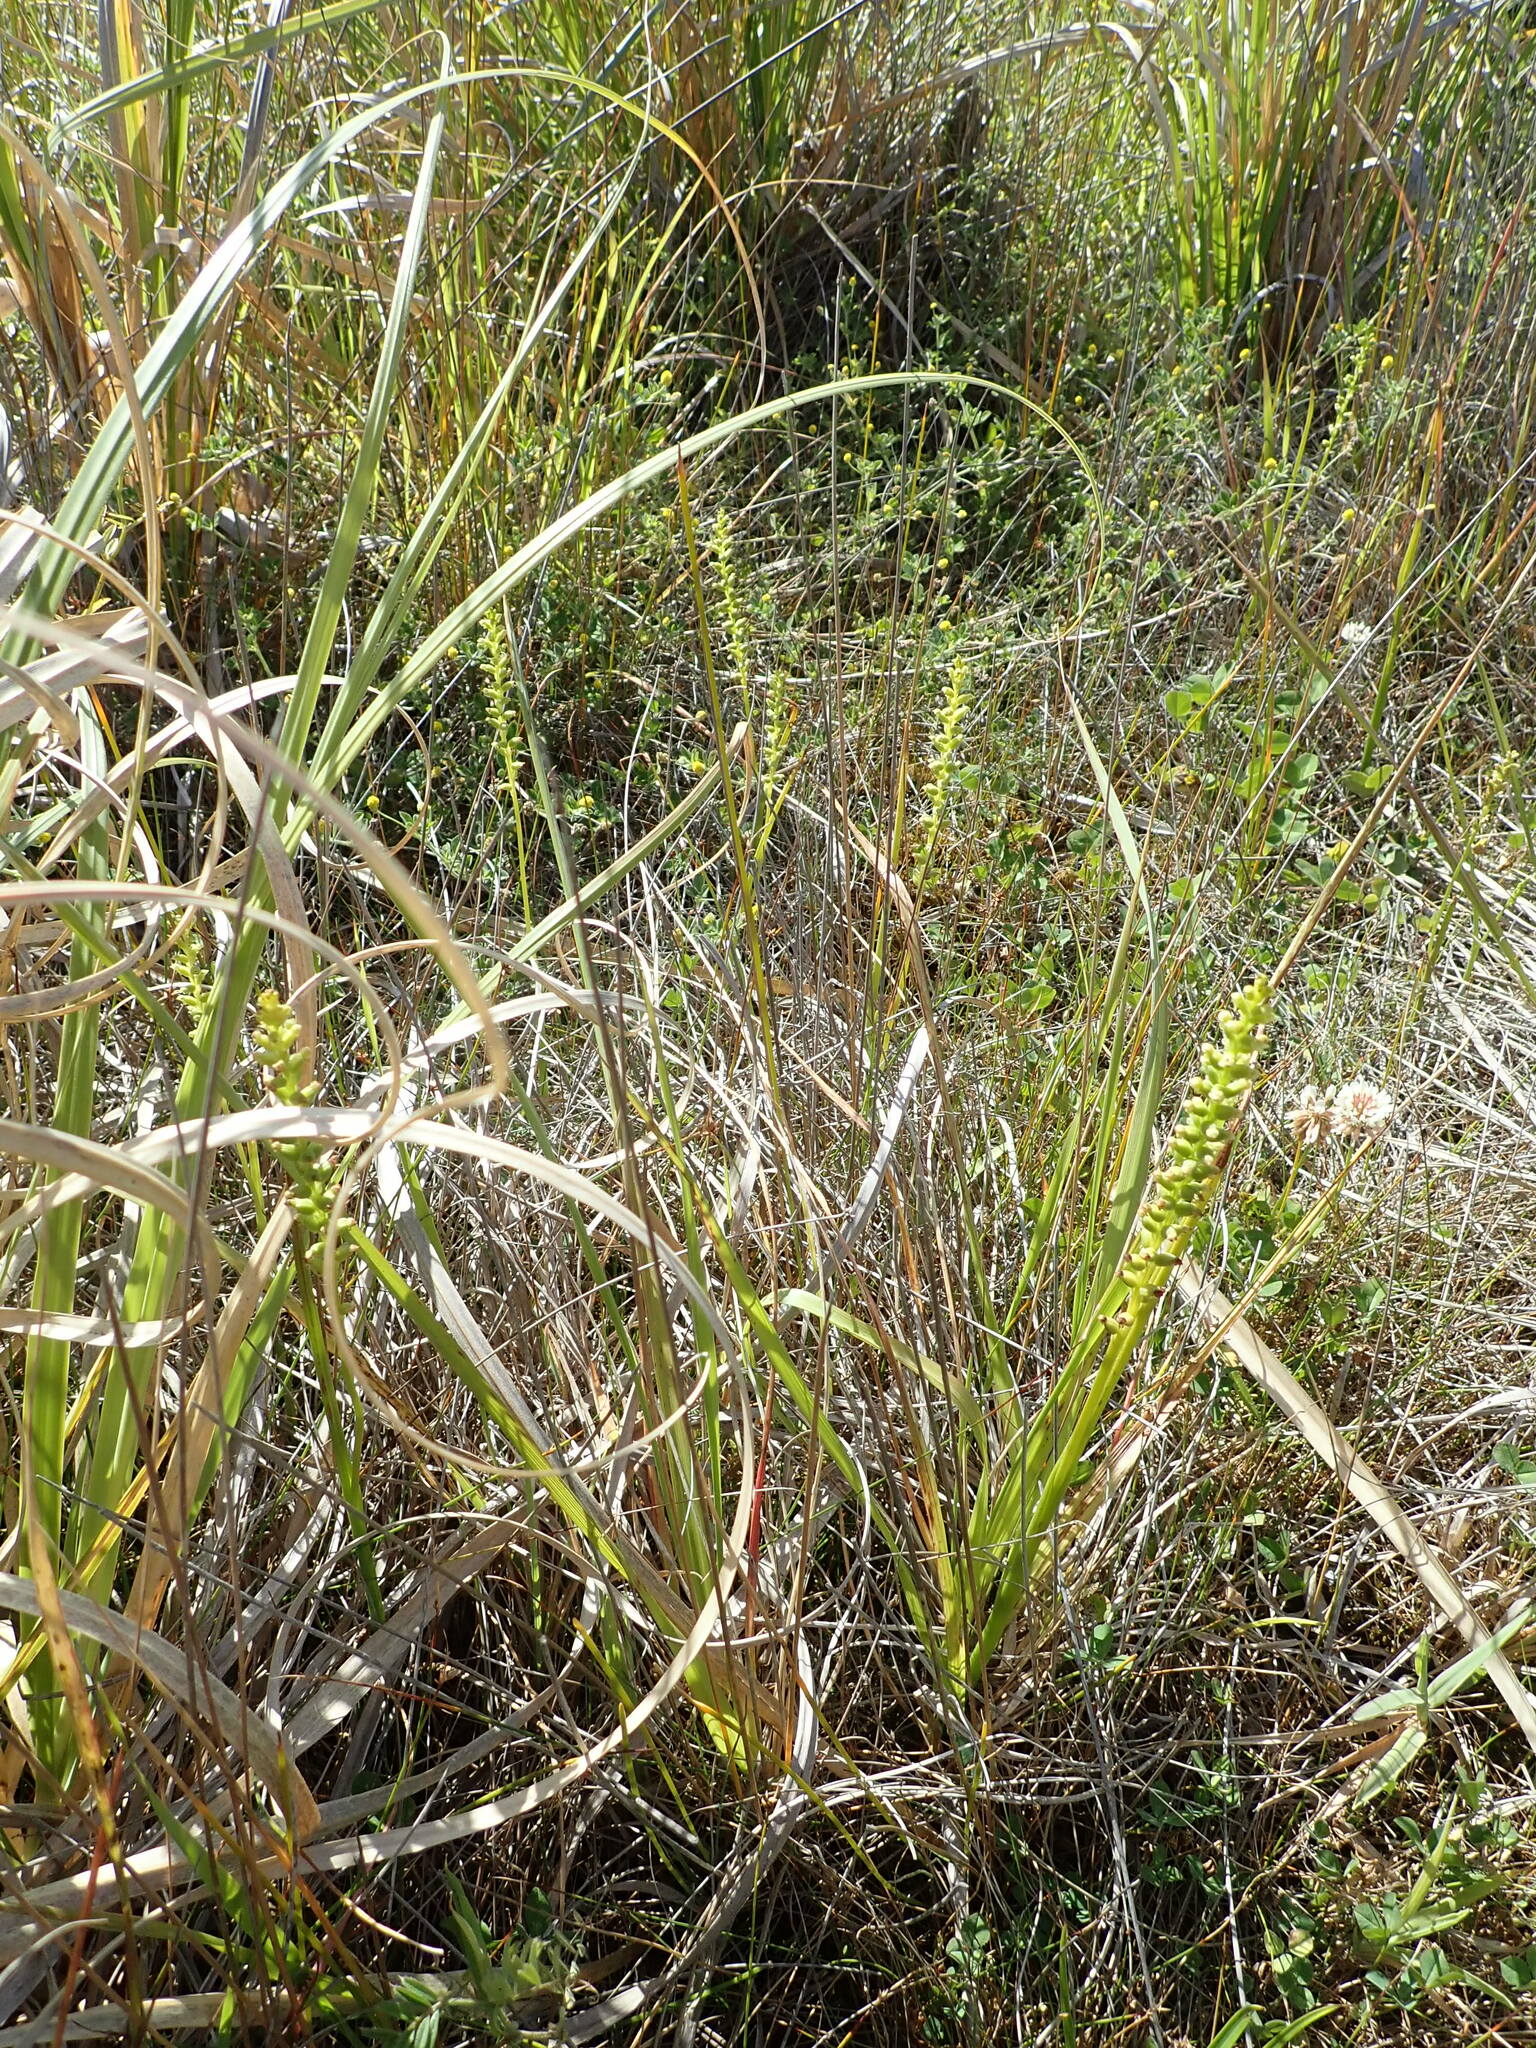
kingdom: Plantae
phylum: Tracheophyta
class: Liliopsida
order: Asparagales
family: Orchidaceae
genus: Microtis
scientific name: Microtis unifolia
